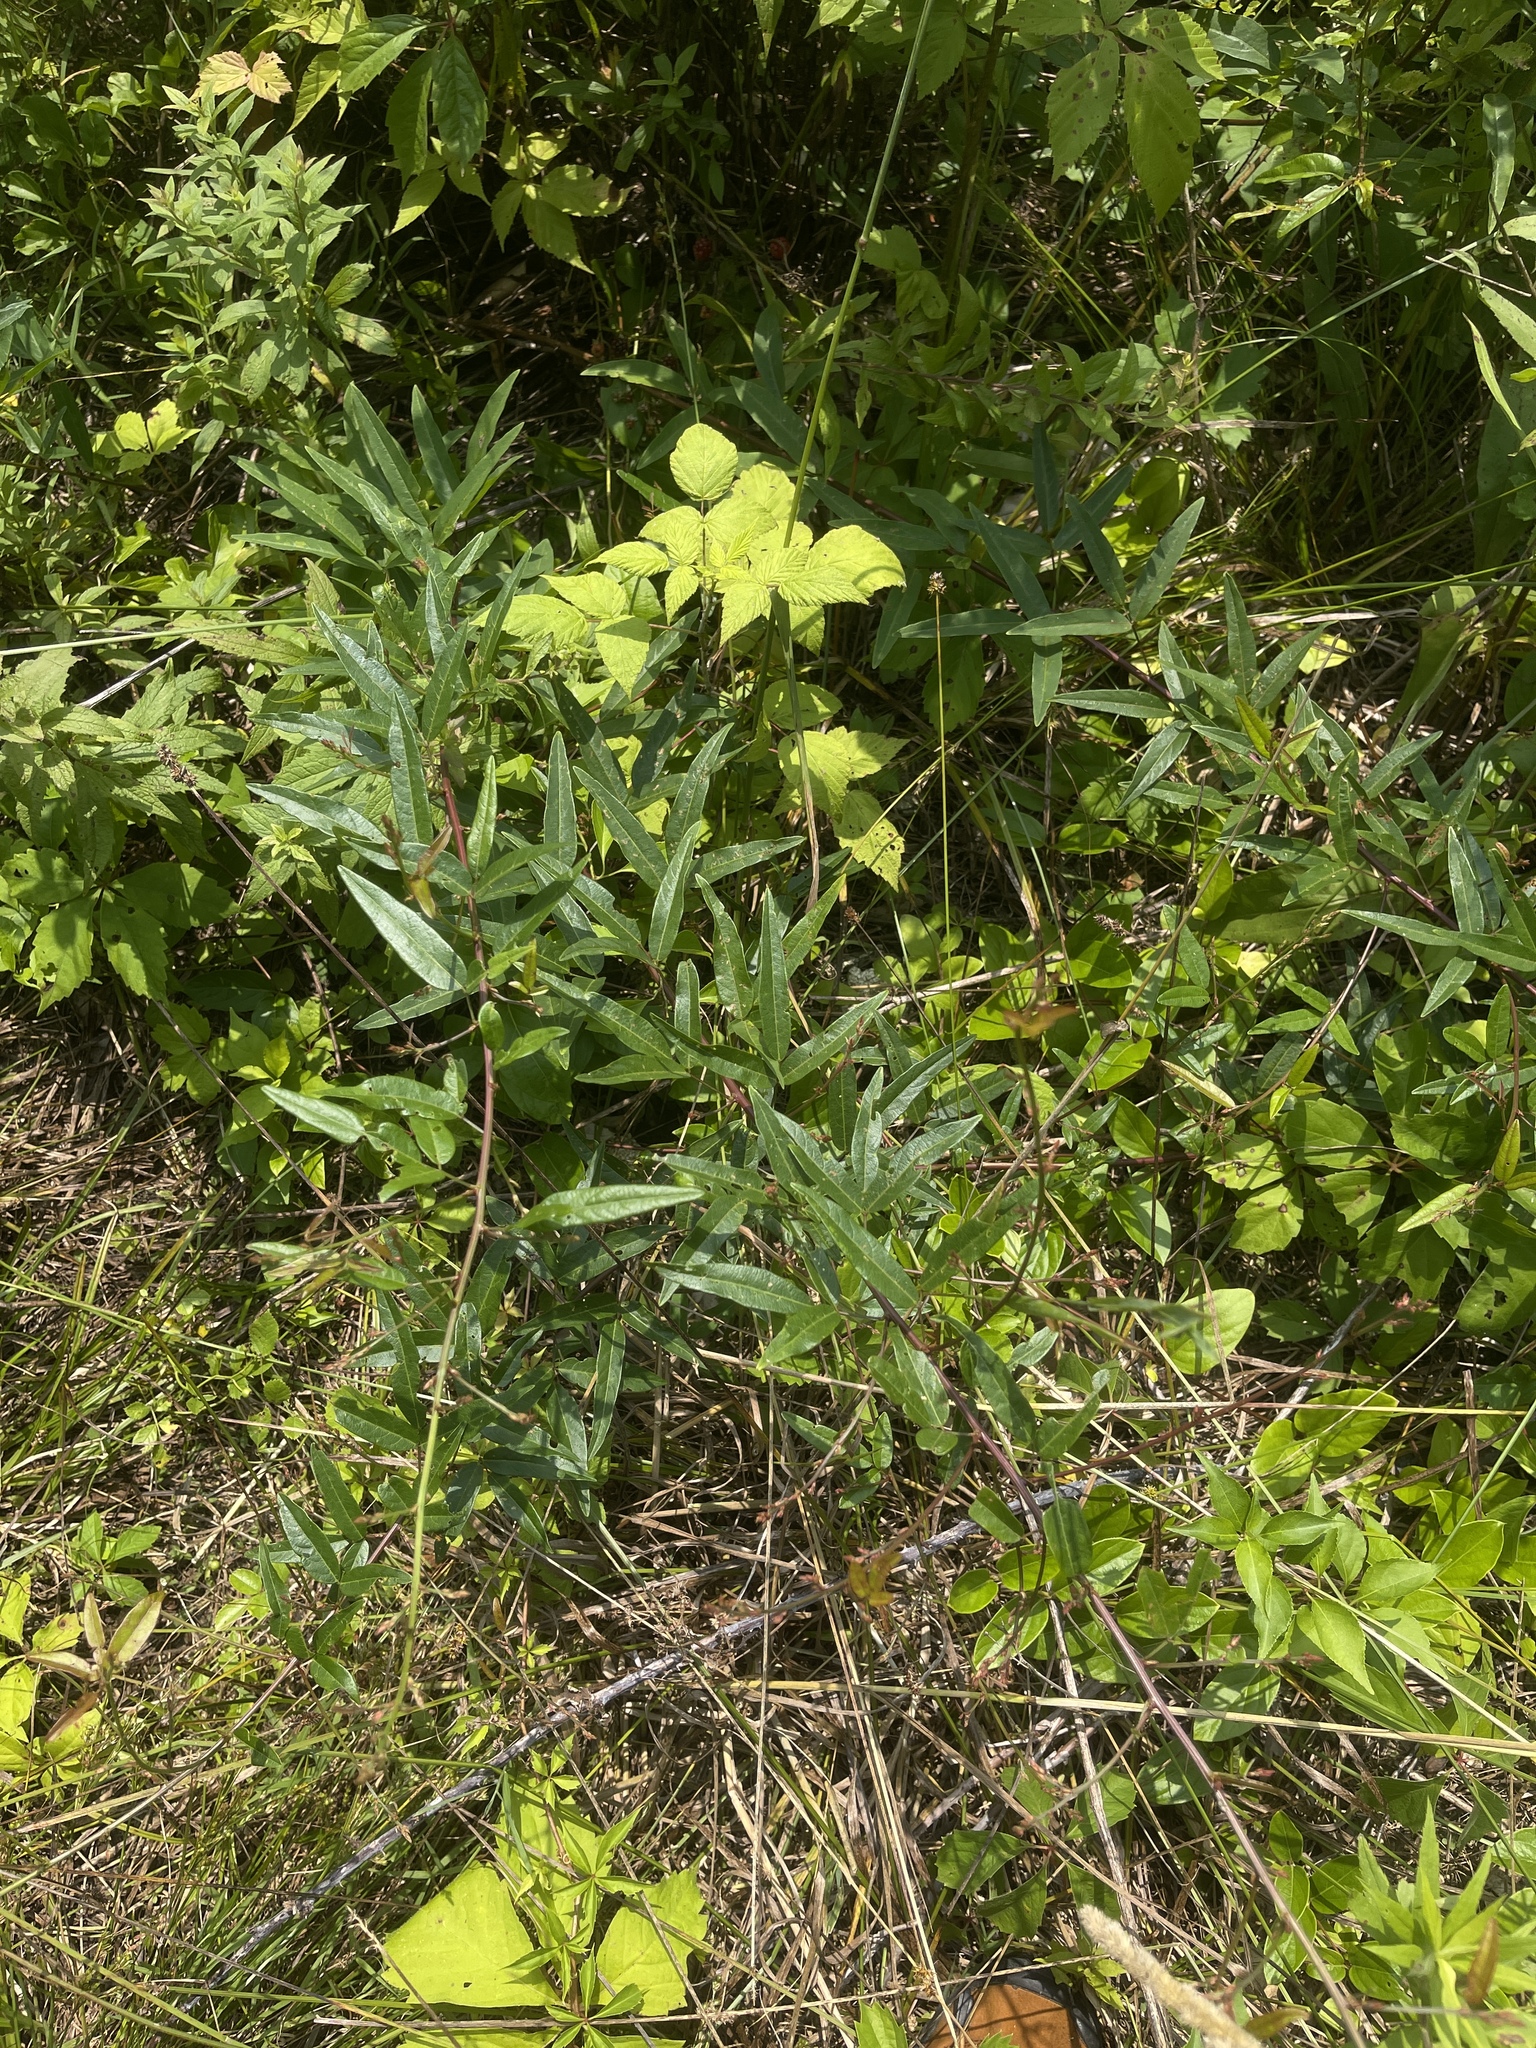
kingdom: Plantae
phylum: Tracheophyta
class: Magnoliopsida
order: Fabales
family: Fabaceae
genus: Desmodium
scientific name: Desmodium paniculatum
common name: Panicled tick-clover
